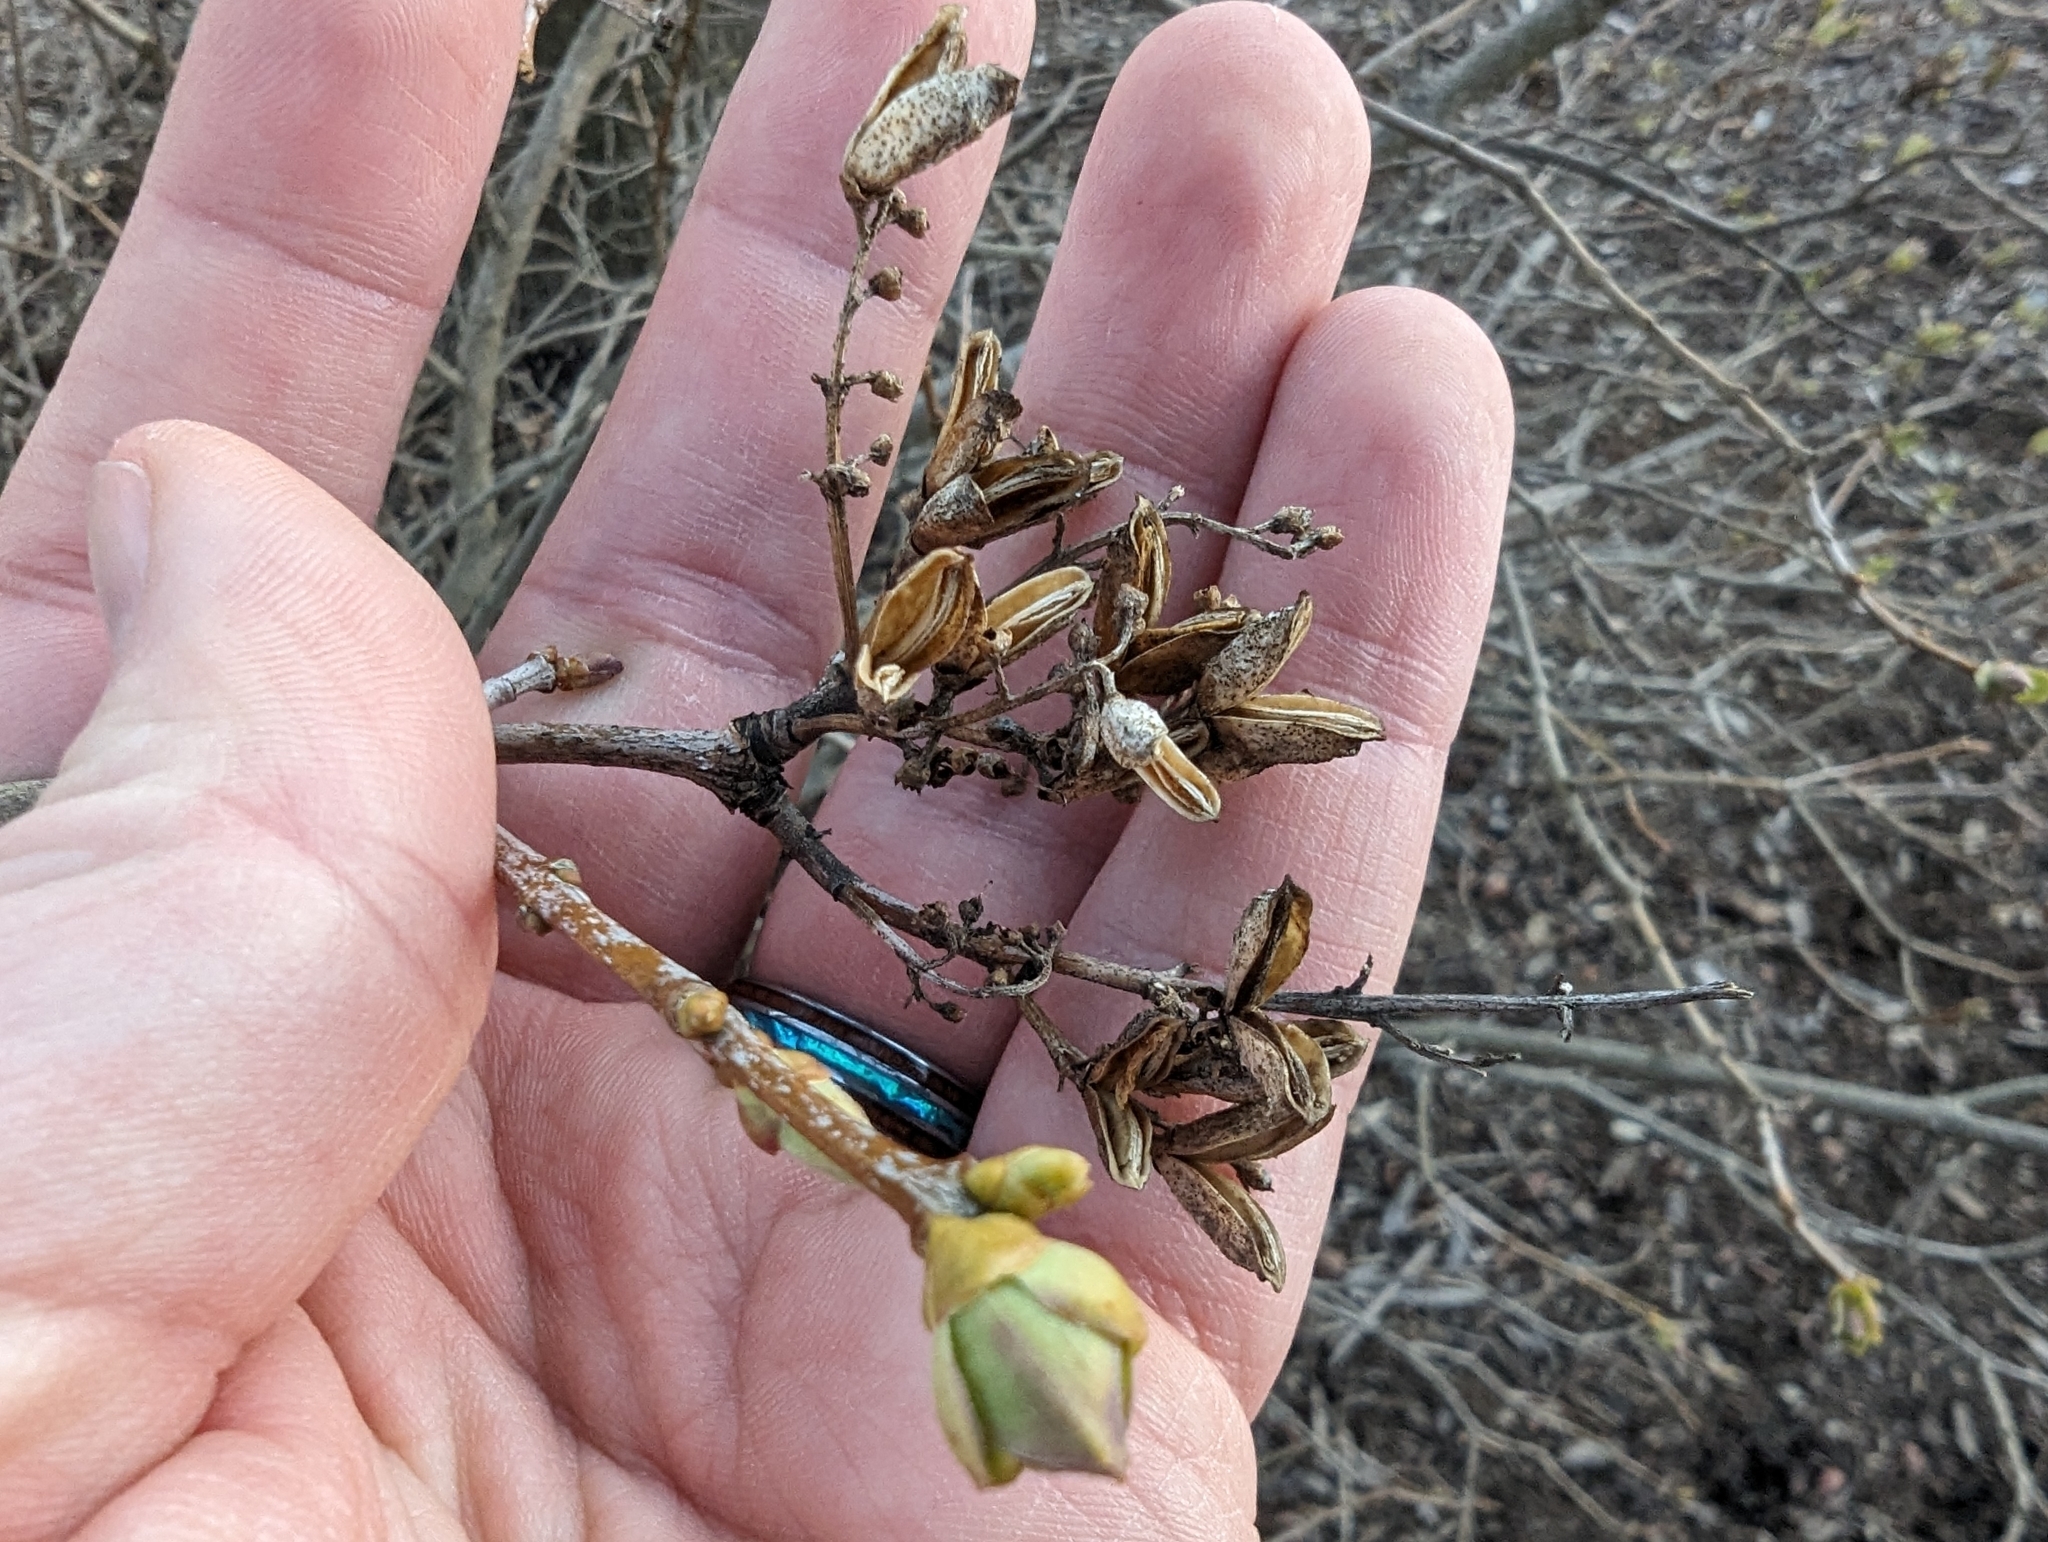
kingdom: Animalia
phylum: Arthropoda
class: Insecta
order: Hemiptera
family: Diaspididae
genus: Lepidosaphes
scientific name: Lepidosaphes ulmi
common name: Oystershell scale
